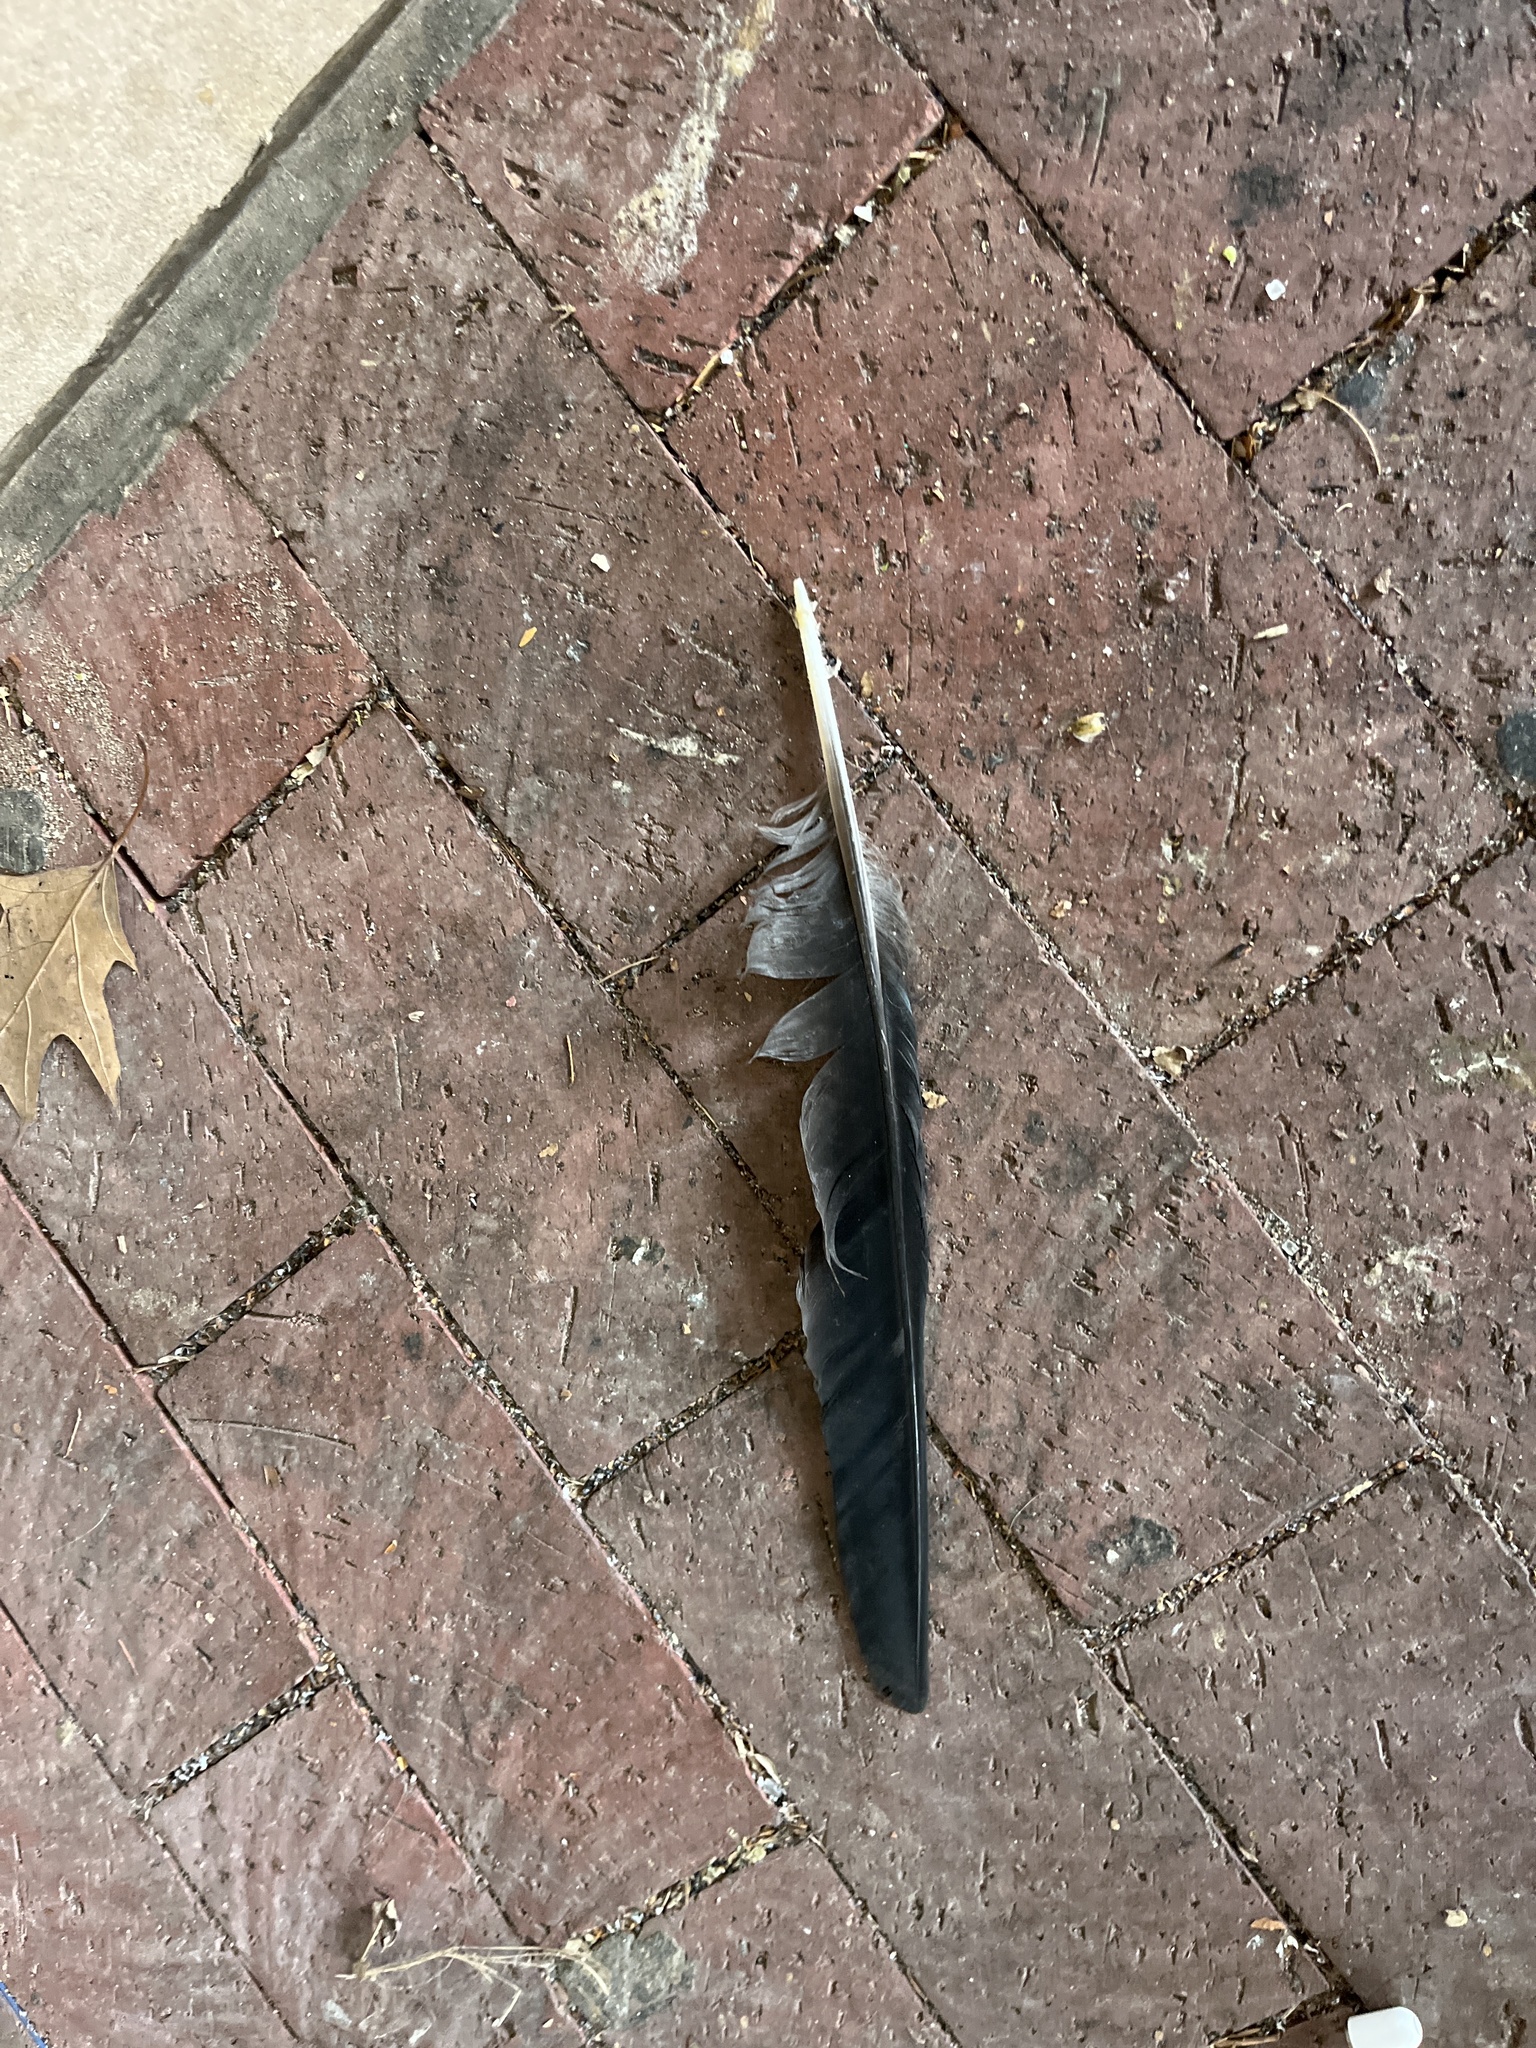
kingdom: Animalia
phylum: Chordata
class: Aves
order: Passeriformes
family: Corvidae
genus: Corvus
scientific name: Corvus brachyrhynchos
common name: American crow
